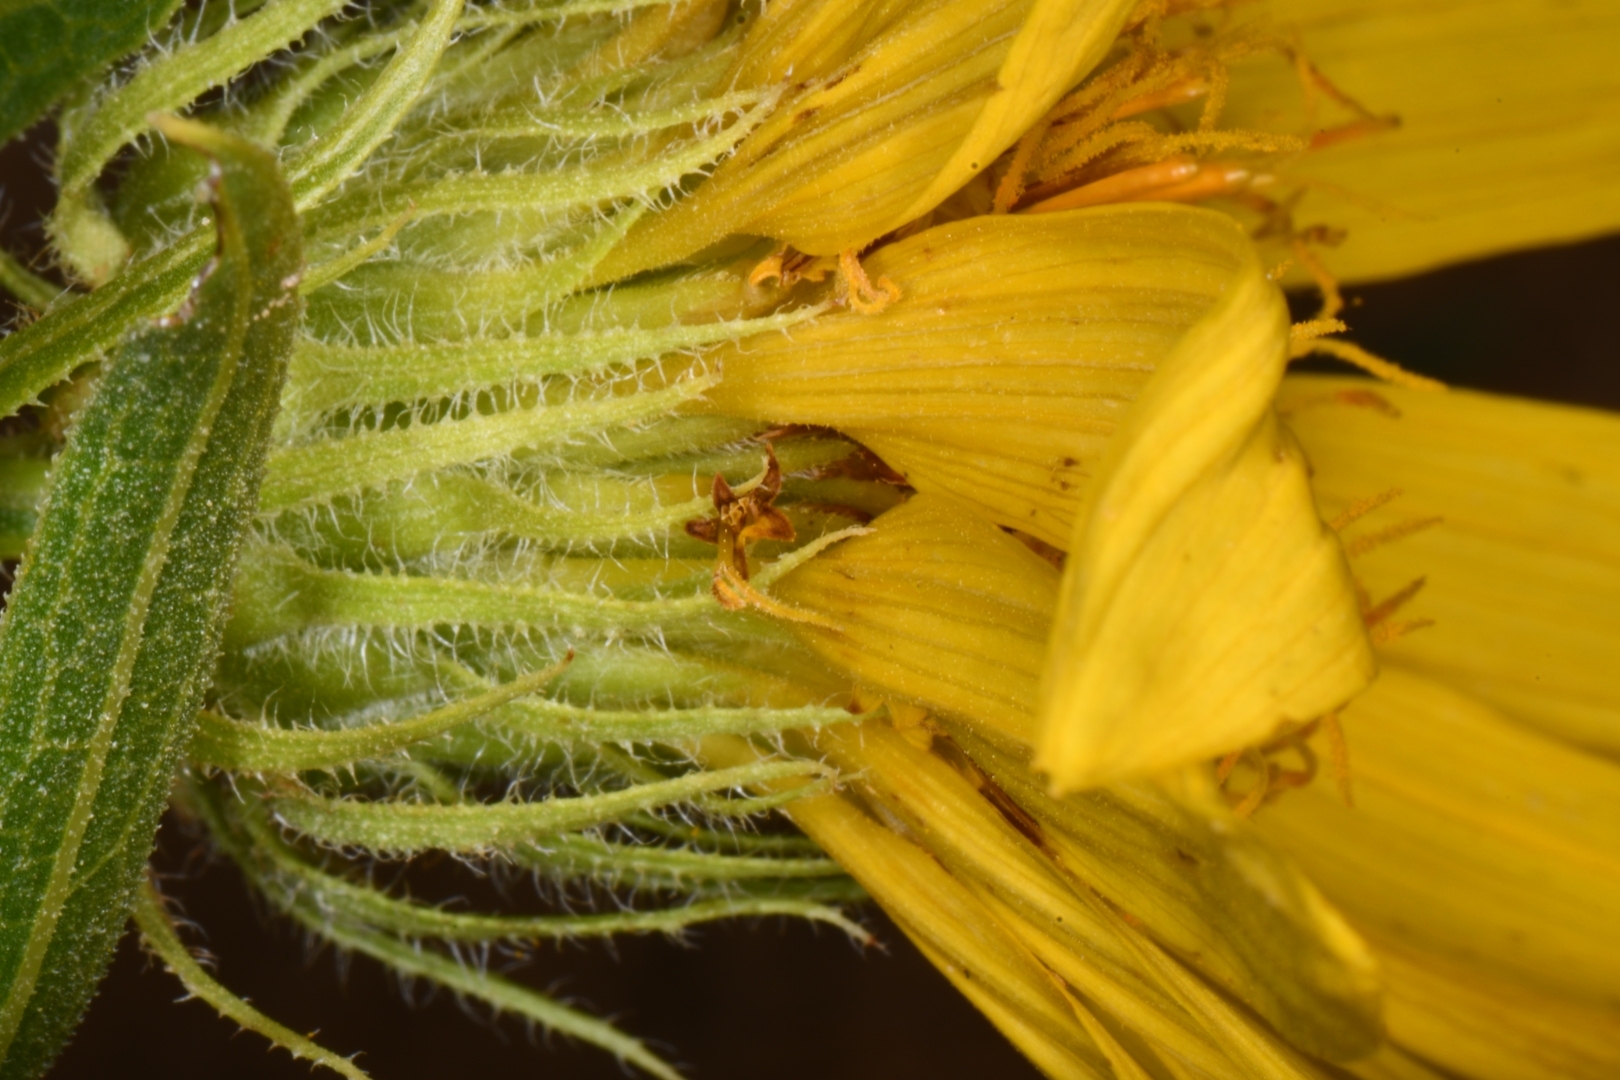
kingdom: Plantae
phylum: Tracheophyta
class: Magnoliopsida
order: Asterales
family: Asteraceae
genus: Scabrethia
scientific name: Scabrethia scabra
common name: Rough mules's-ears
